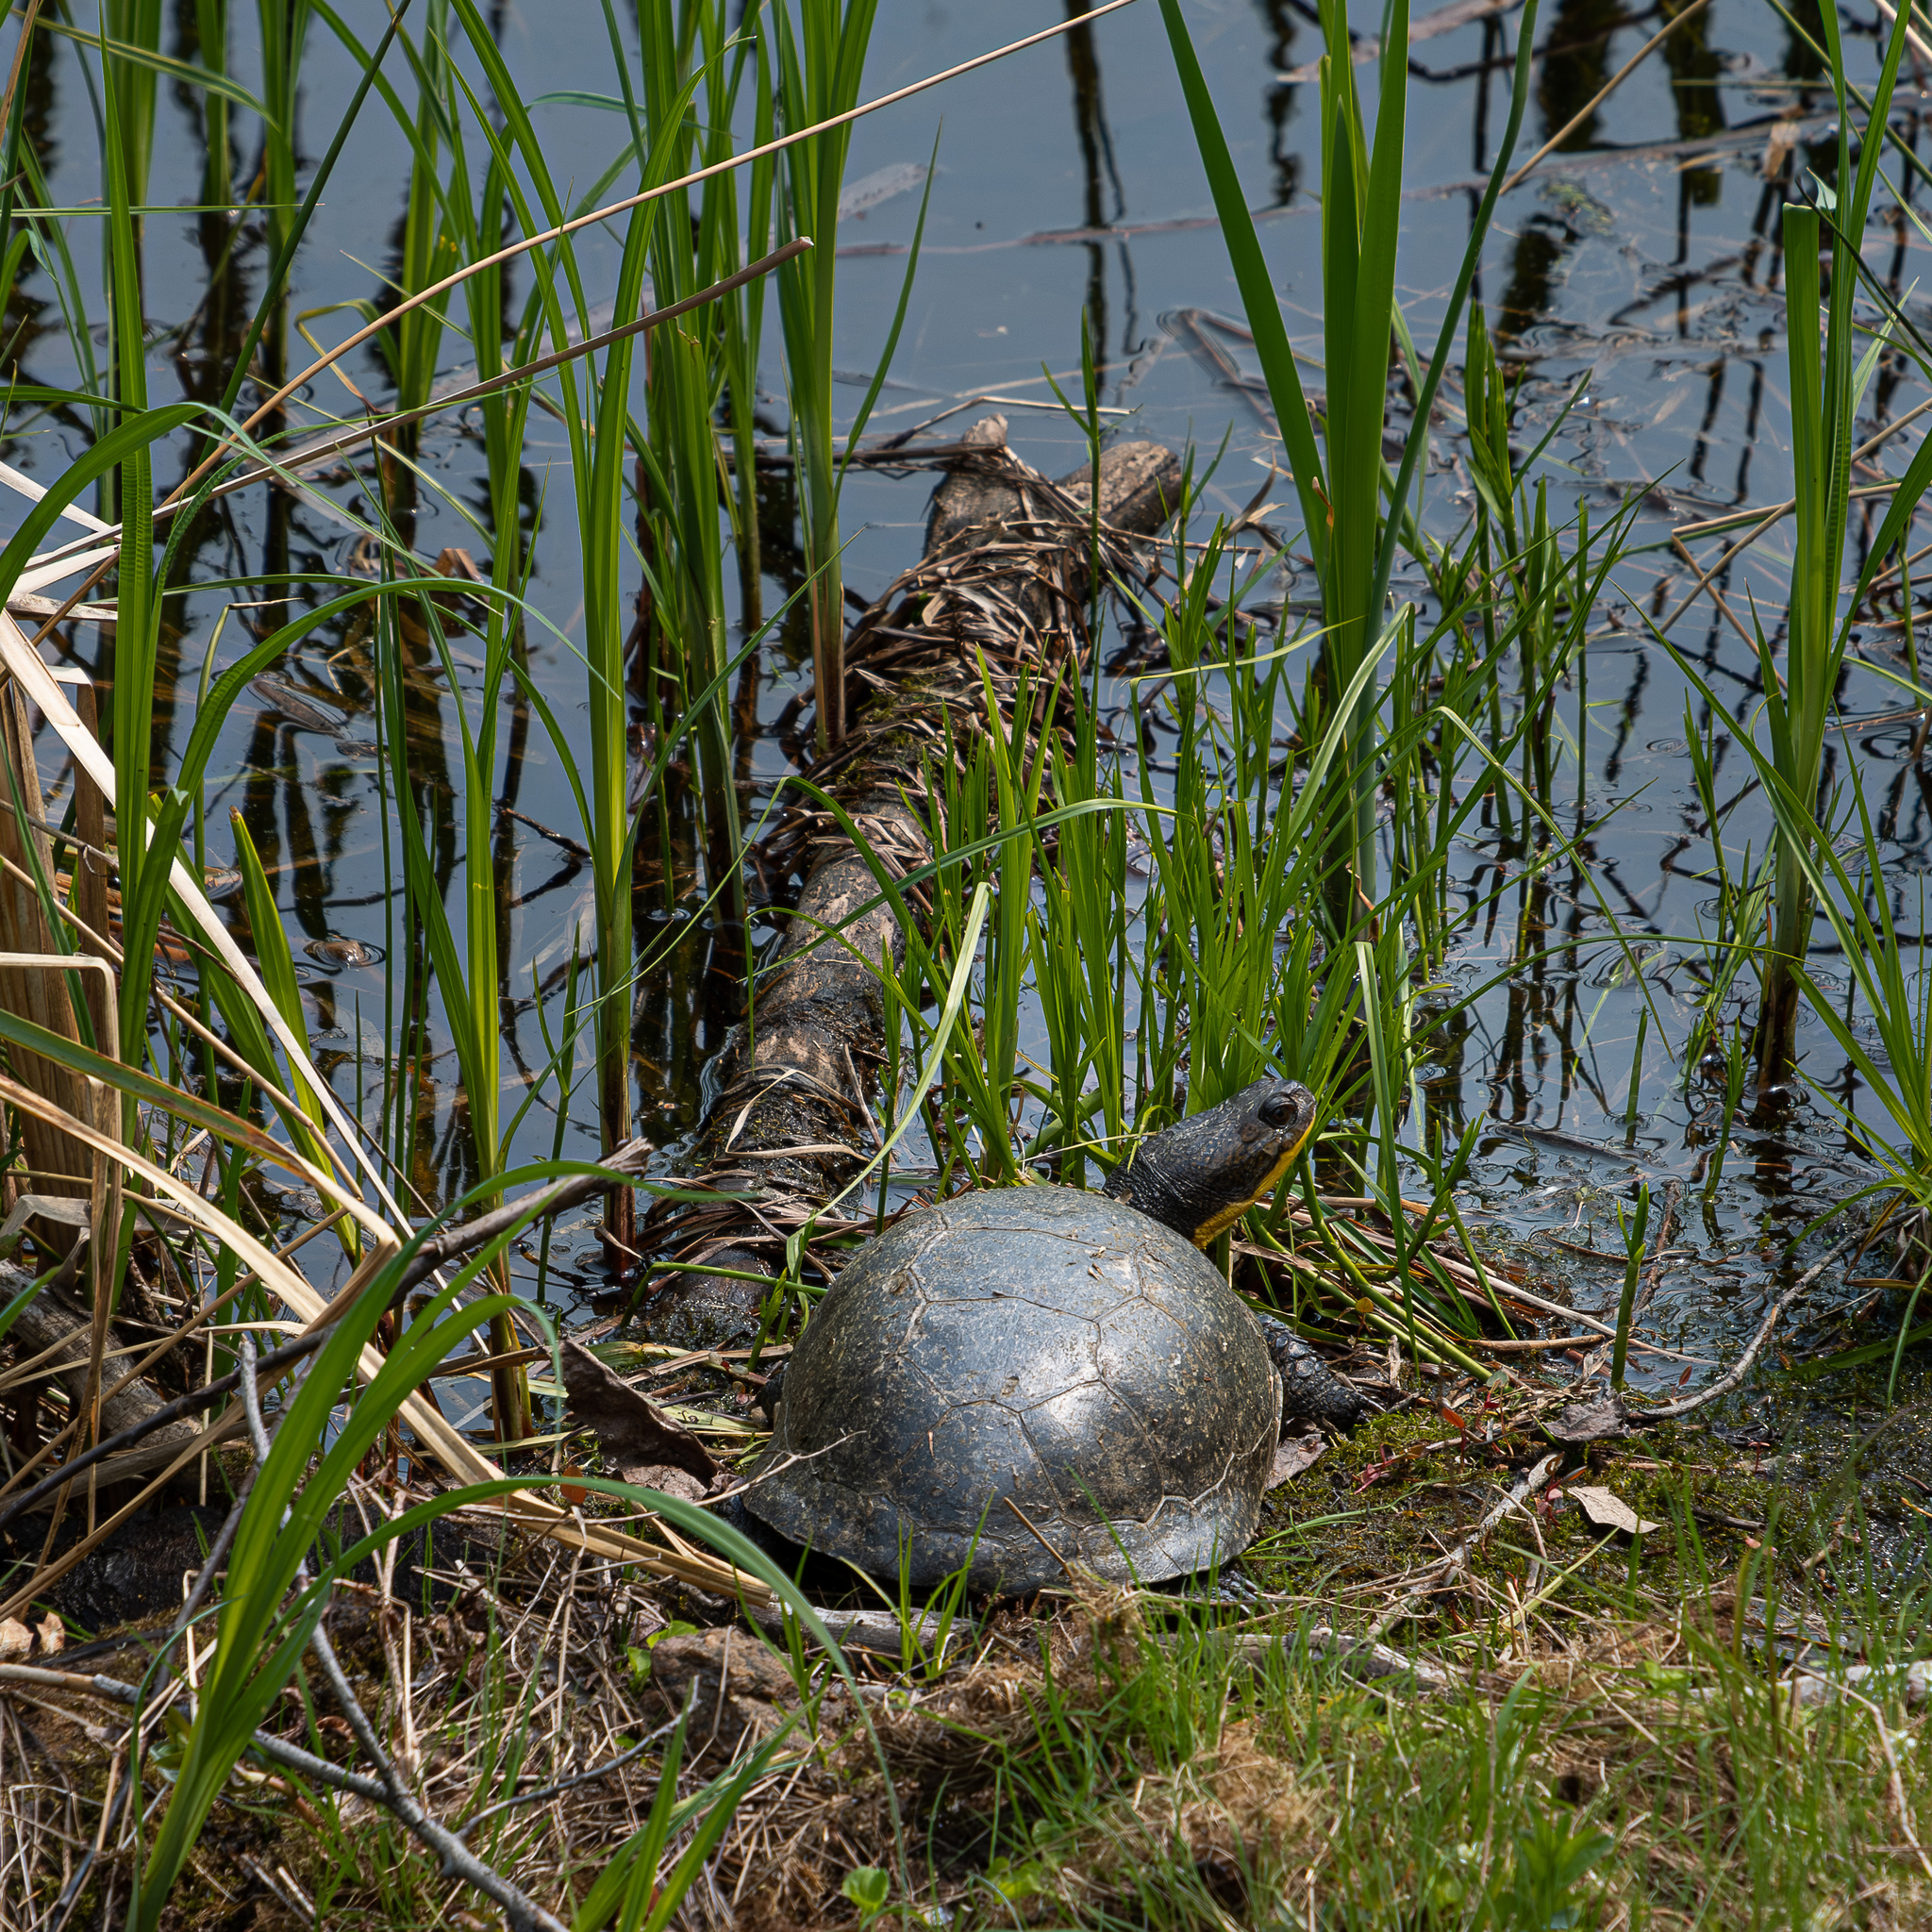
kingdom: Animalia
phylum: Chordata
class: Testudines
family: Emydidae
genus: Emys
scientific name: Emys blandingii
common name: Blanding's turtle
